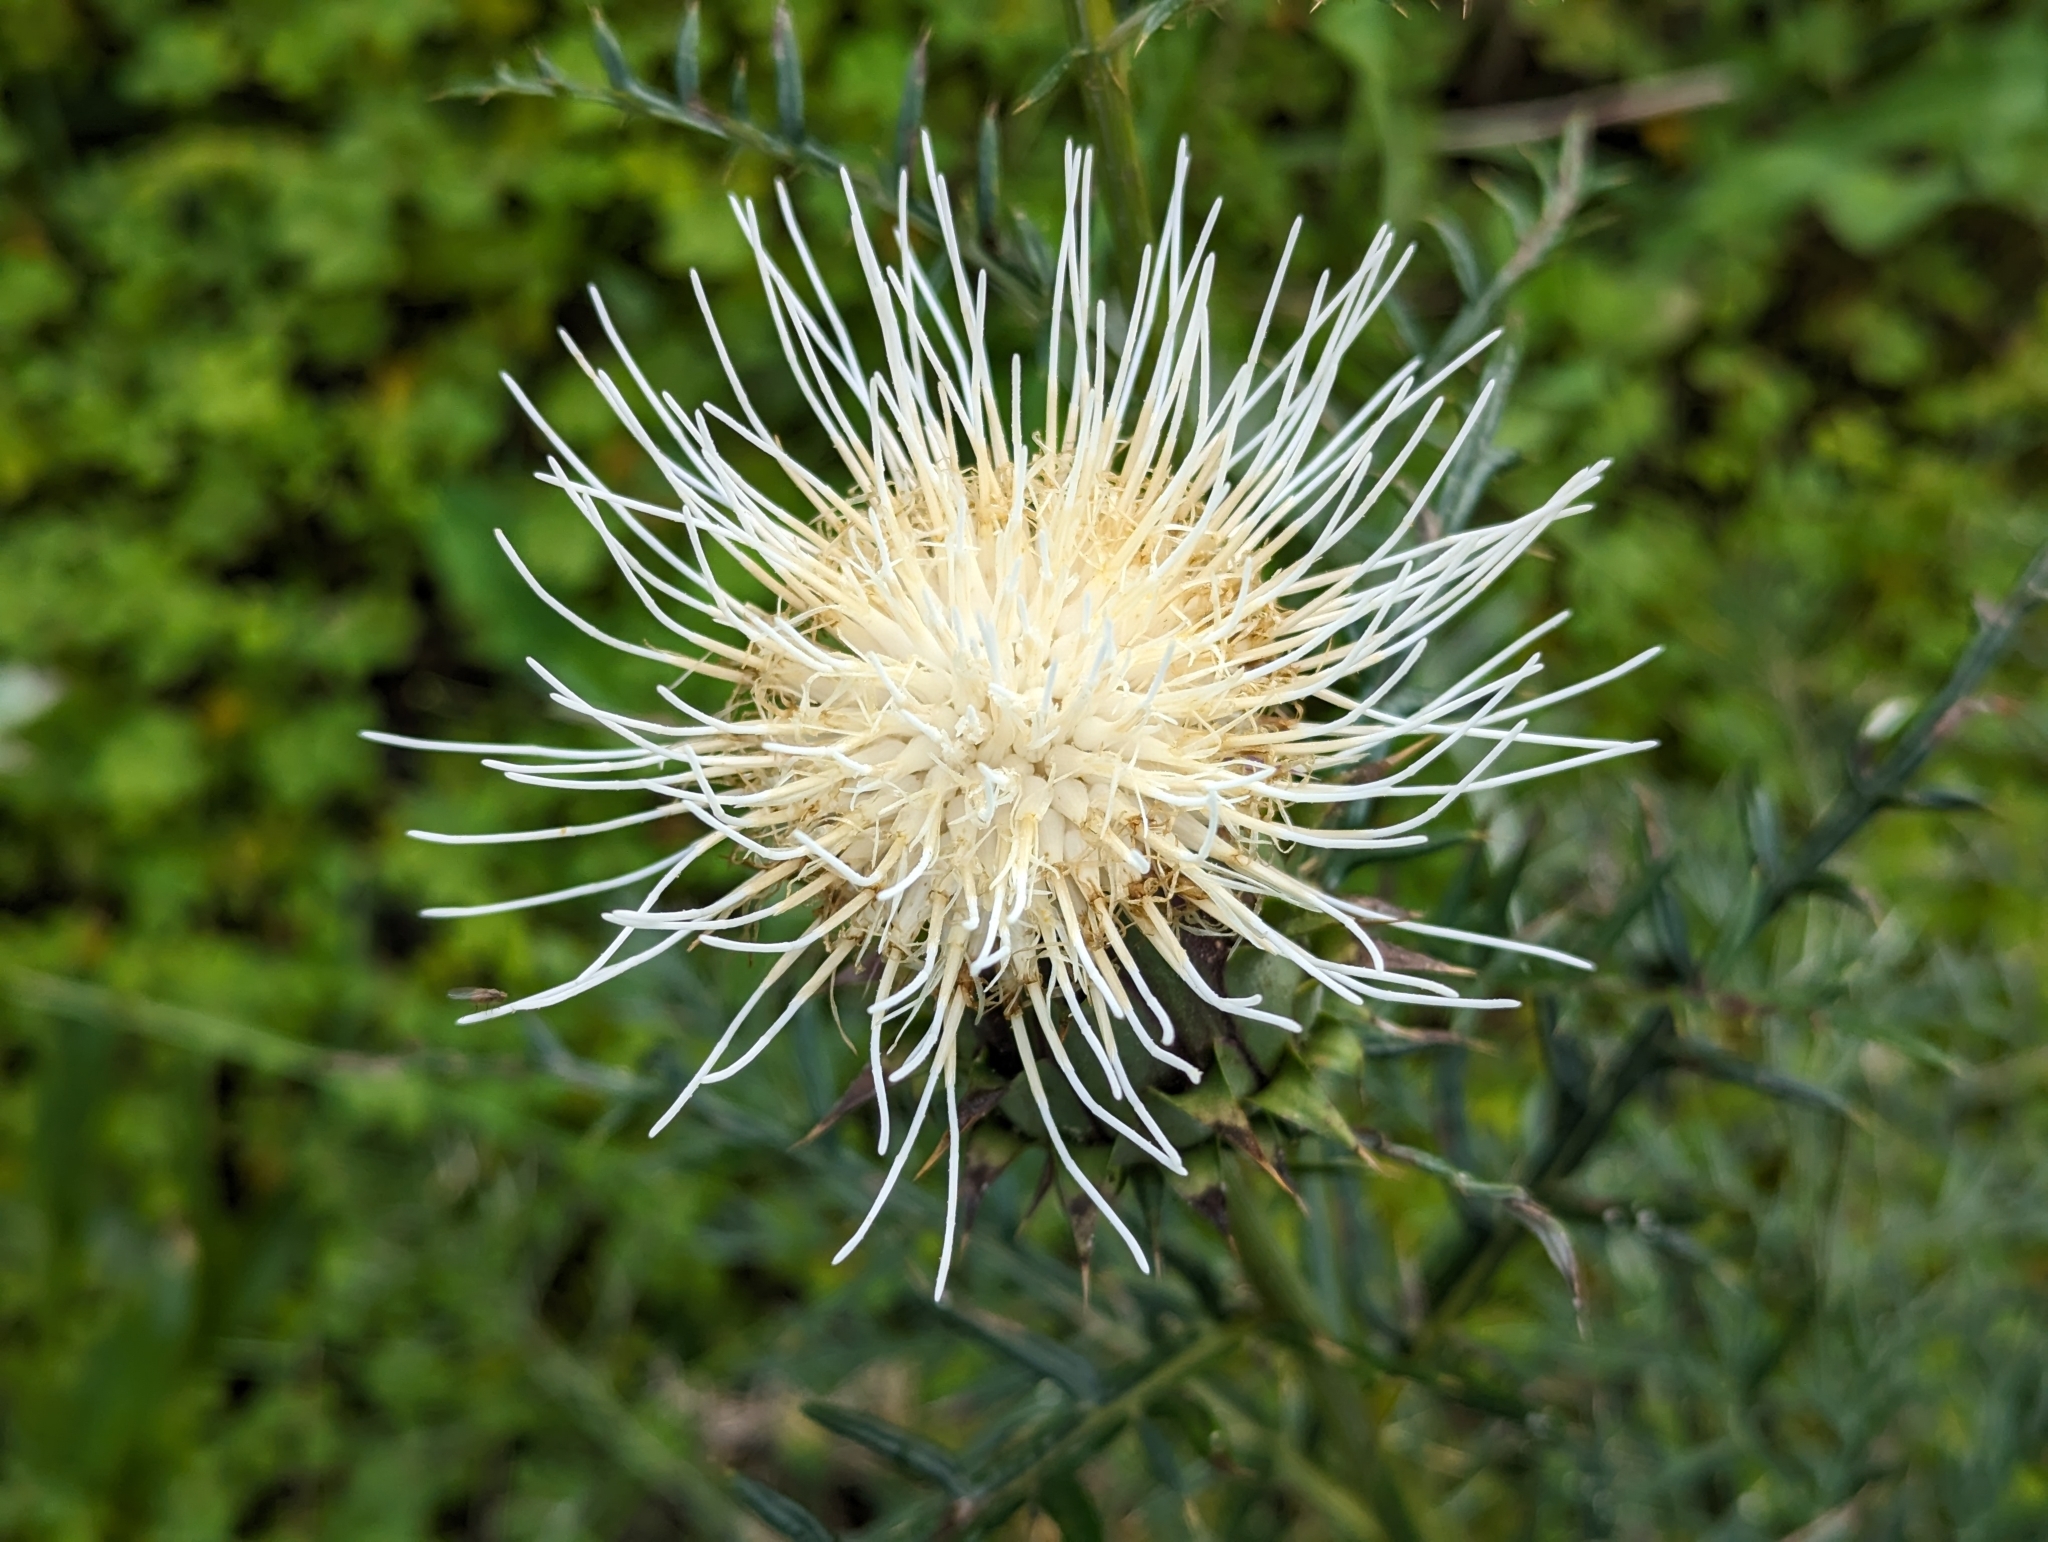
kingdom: Plantae
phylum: Tracheophyta
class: Magnoliopsida
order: Asterales
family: Asteraceae
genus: Cynara
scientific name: Cynara humilis
